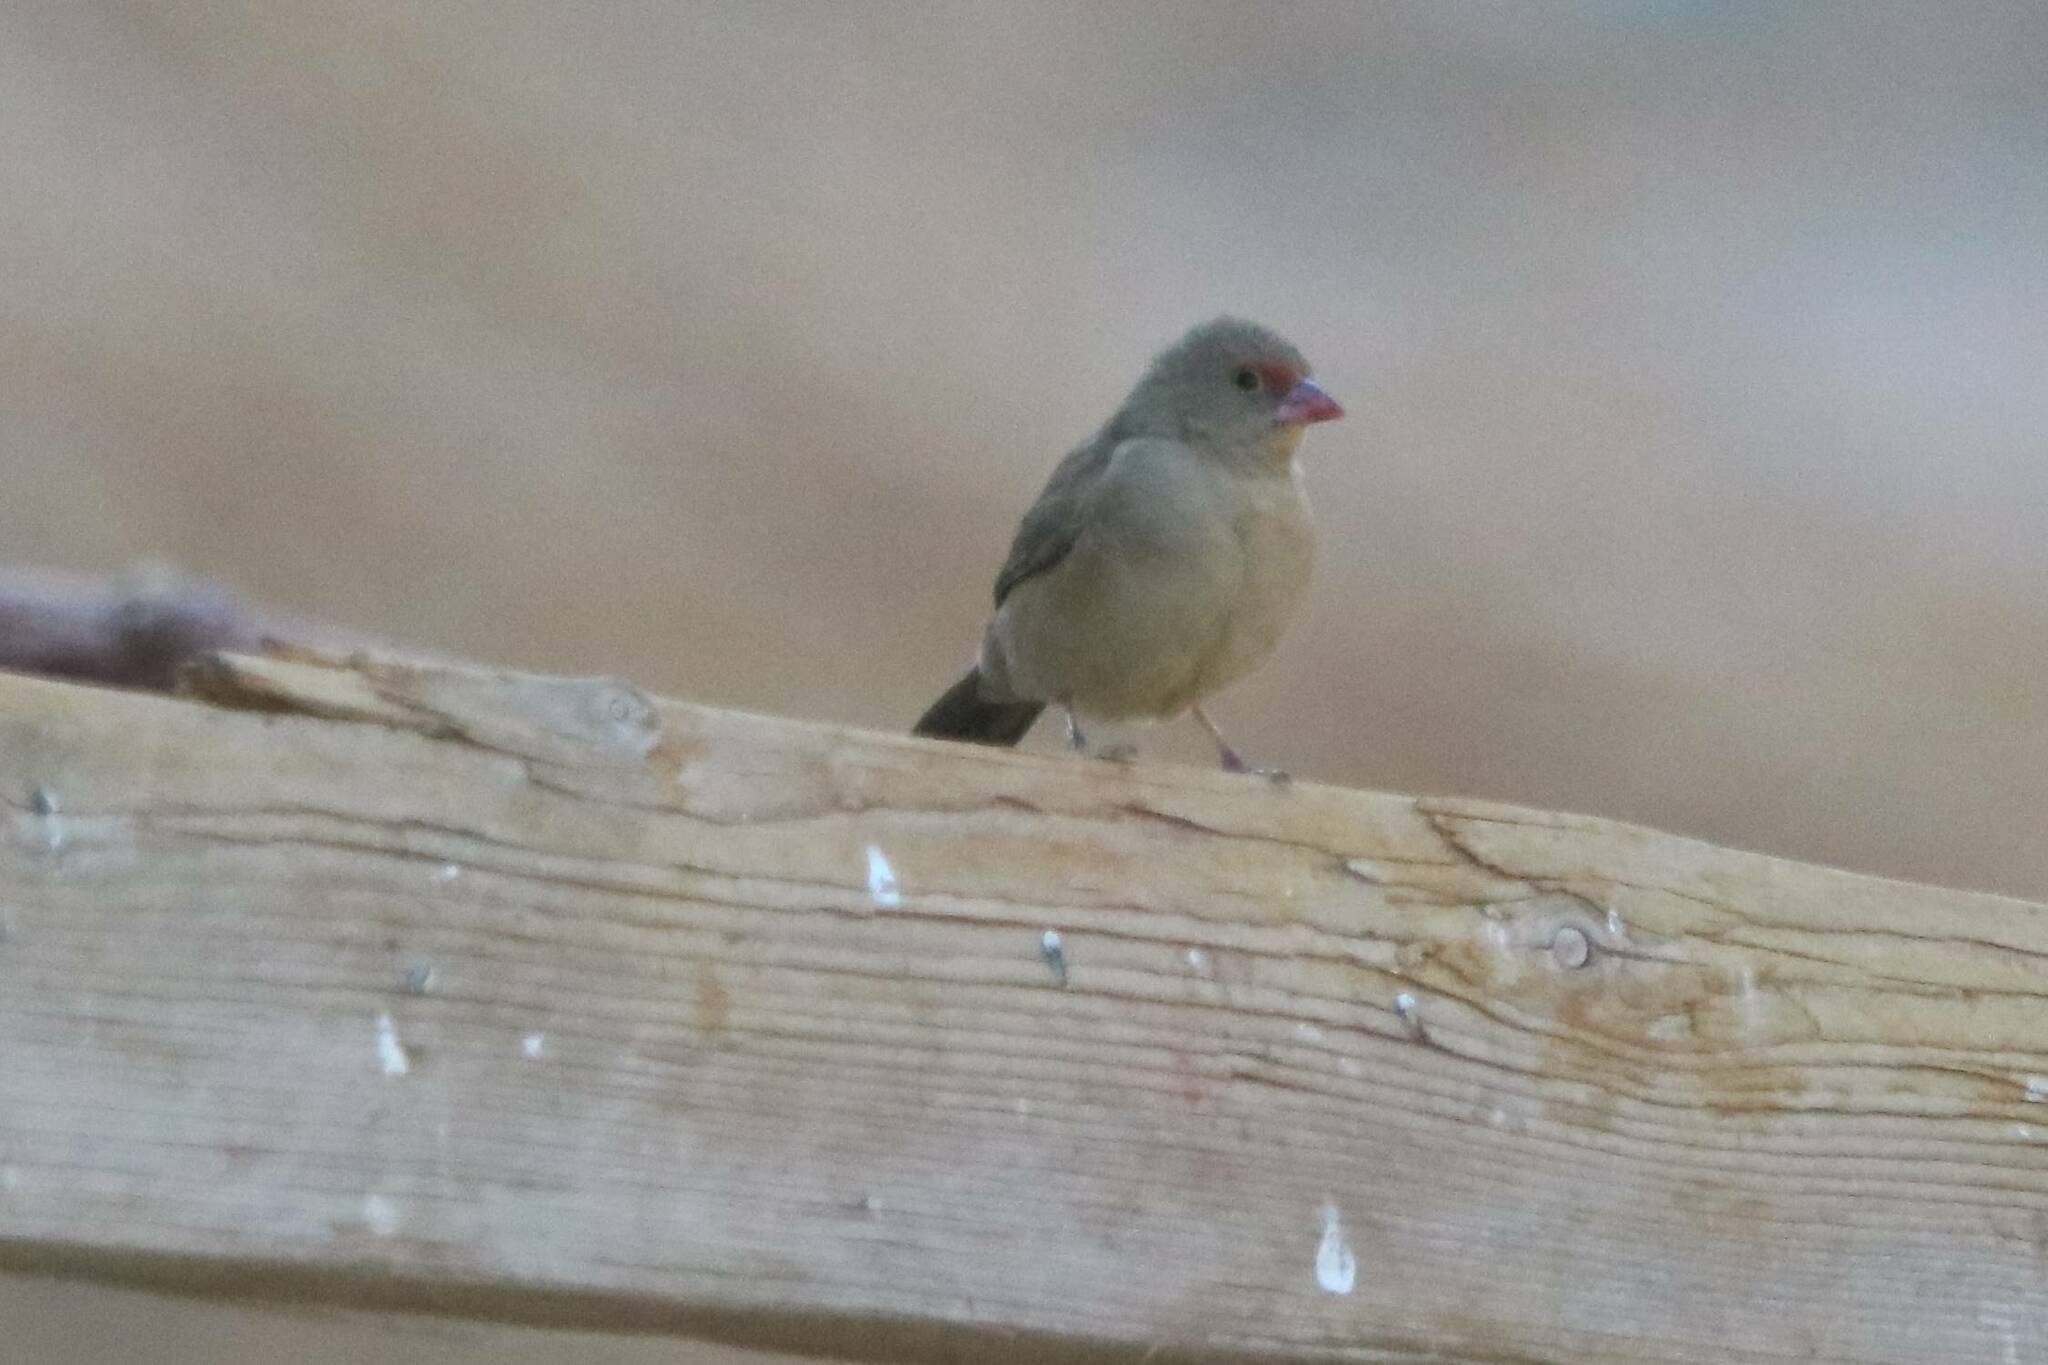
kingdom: Animalia
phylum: Chordata
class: Aves
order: Passeriformes
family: Estrildidae
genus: Lagonosticta
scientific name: Lagonosticta senegala
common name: Red-billed firefinch
